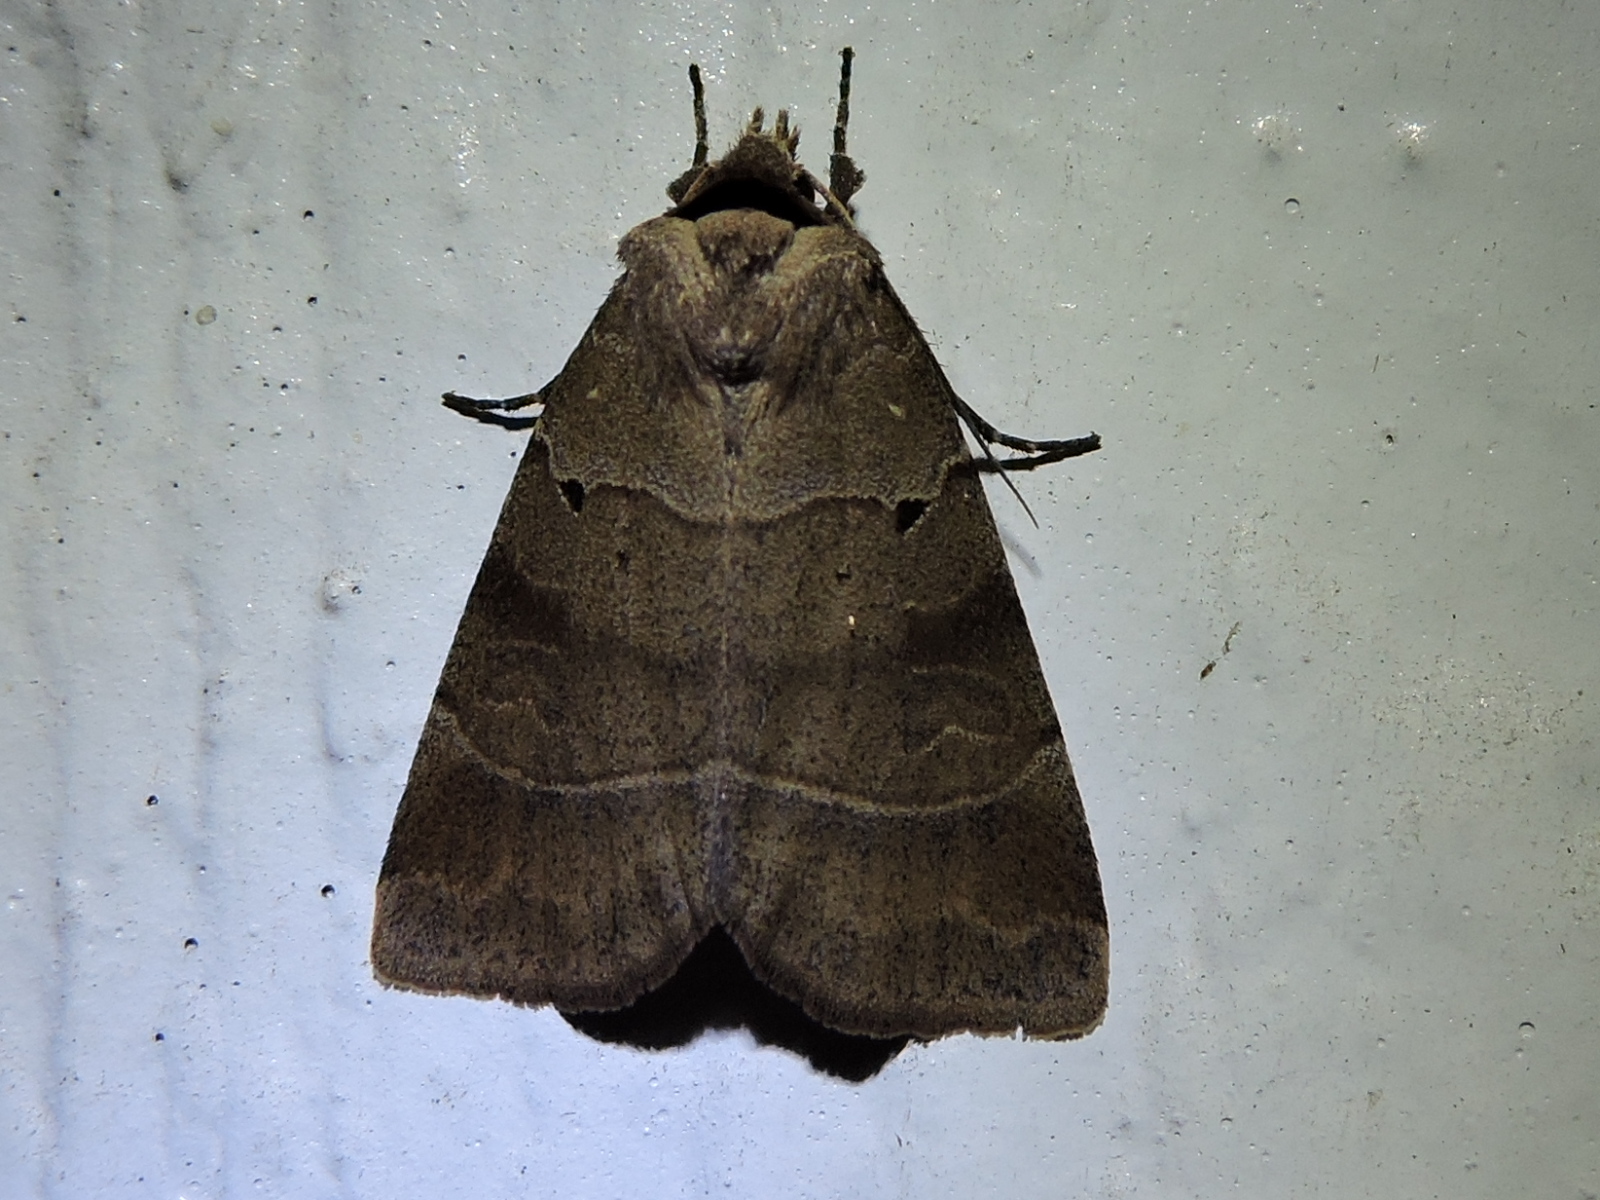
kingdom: Animalia
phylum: Arthropoda
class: Insecta
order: Lepidoptera
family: Noctuidae
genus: Agnorisma
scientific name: Agnorisma badinodis
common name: Pale-banded dart
